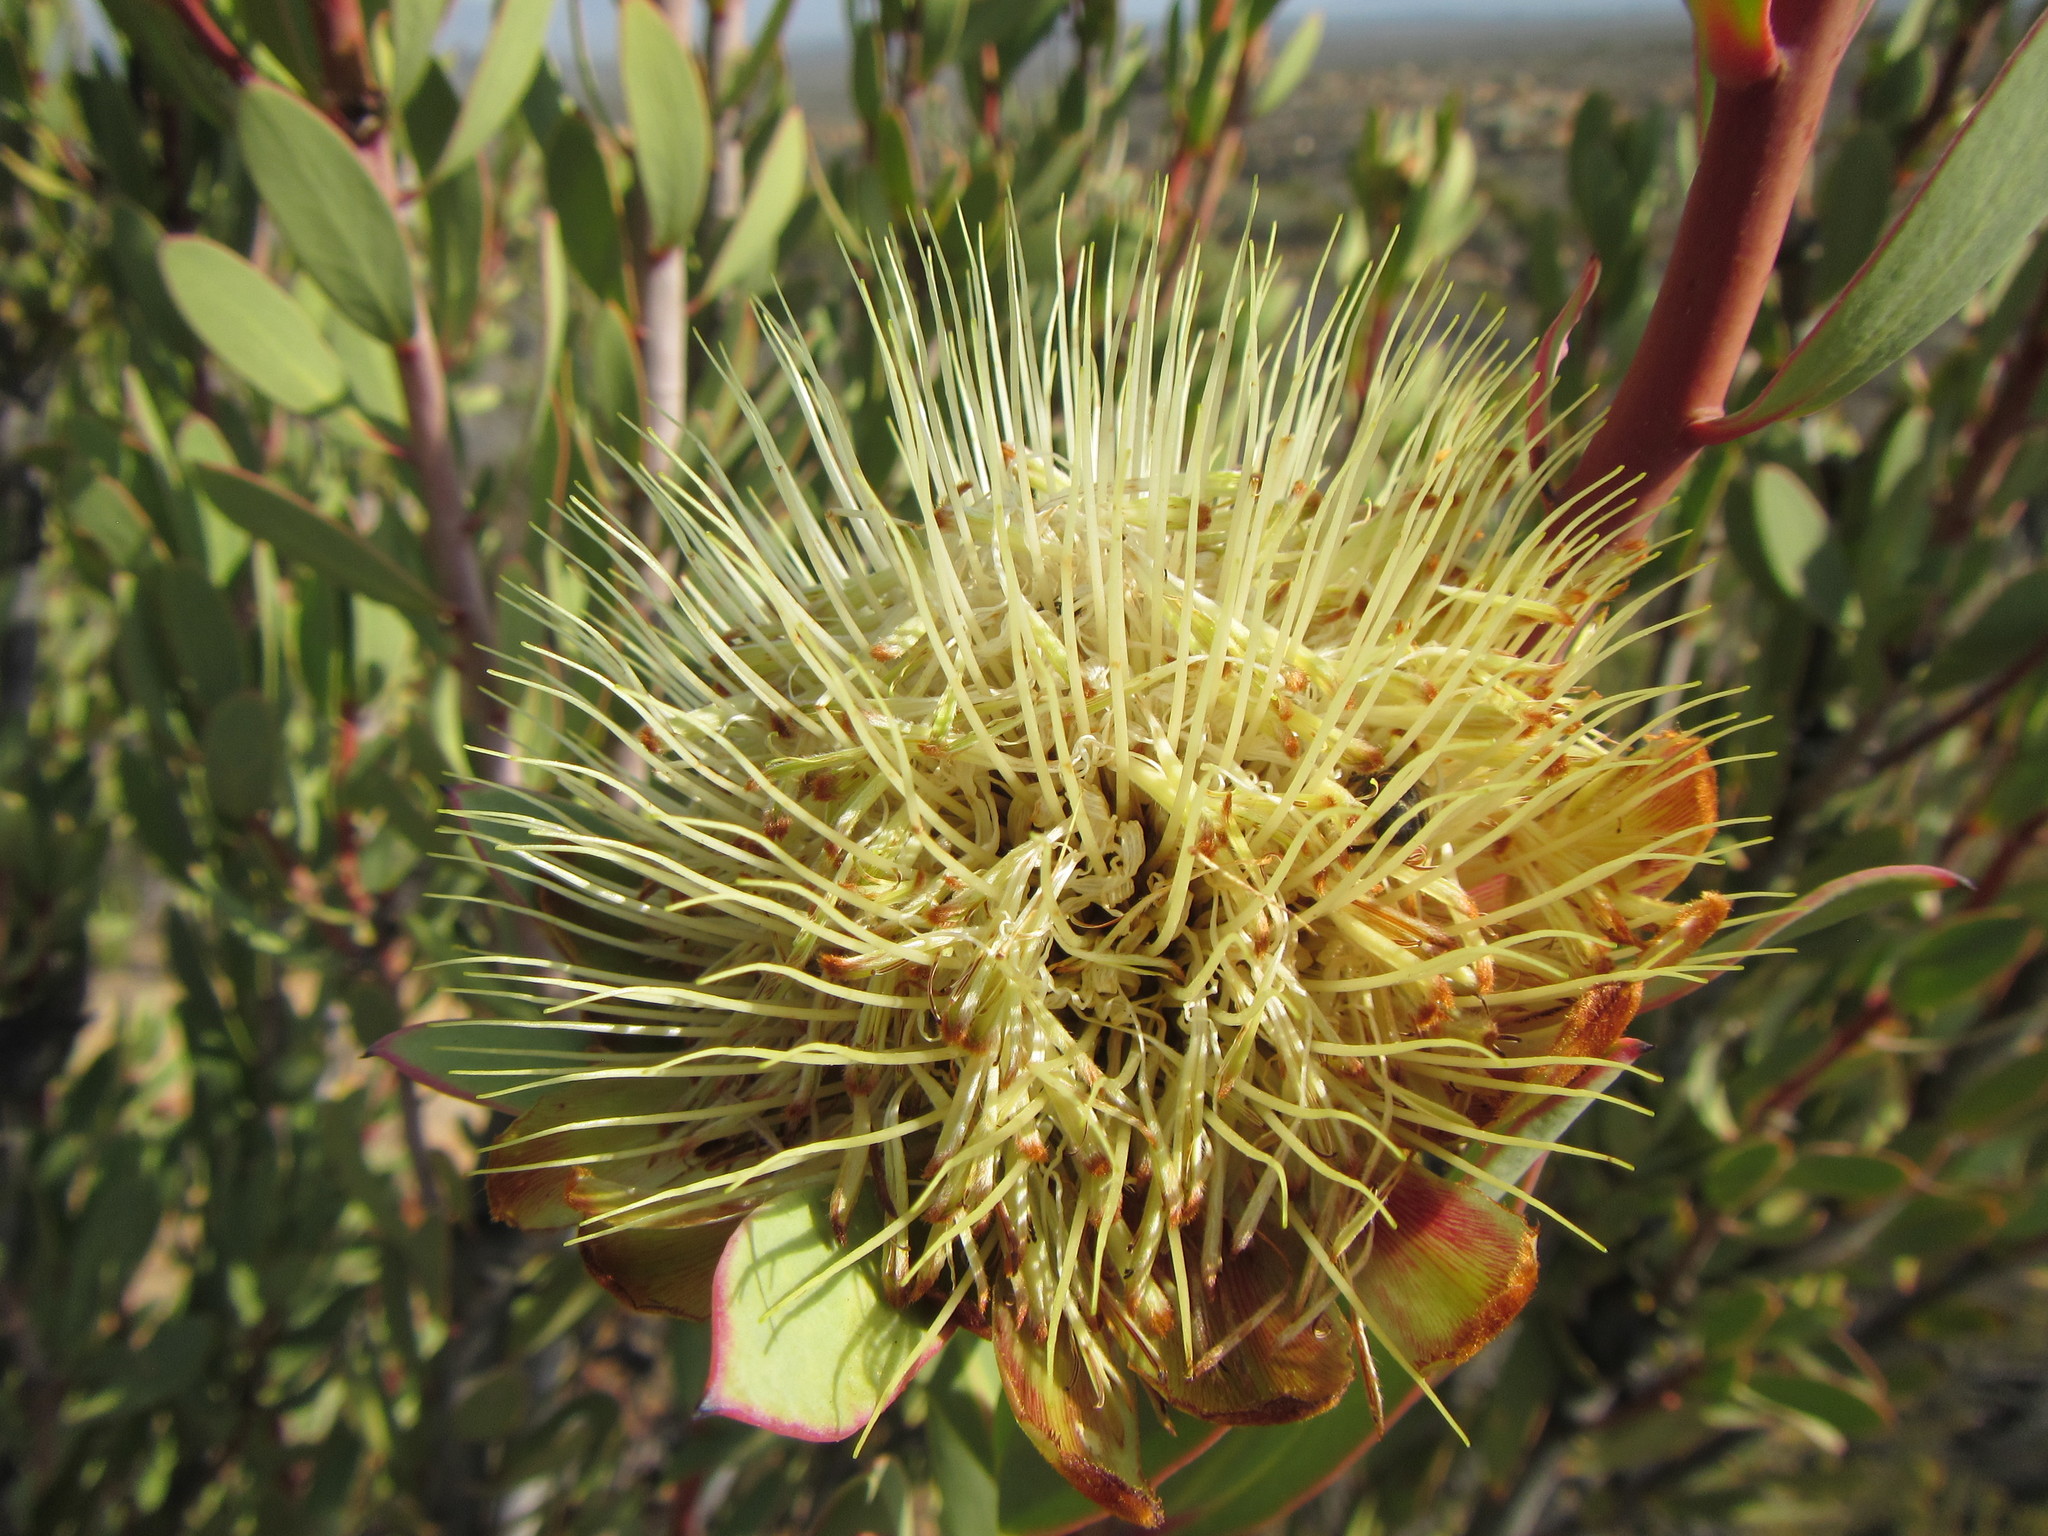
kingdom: Plantae
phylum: Tracheophyta
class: Magnoliopsida
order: Proteales
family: Proteaceae
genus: Protea
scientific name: Protea glabra
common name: Chestnut sugarbush
